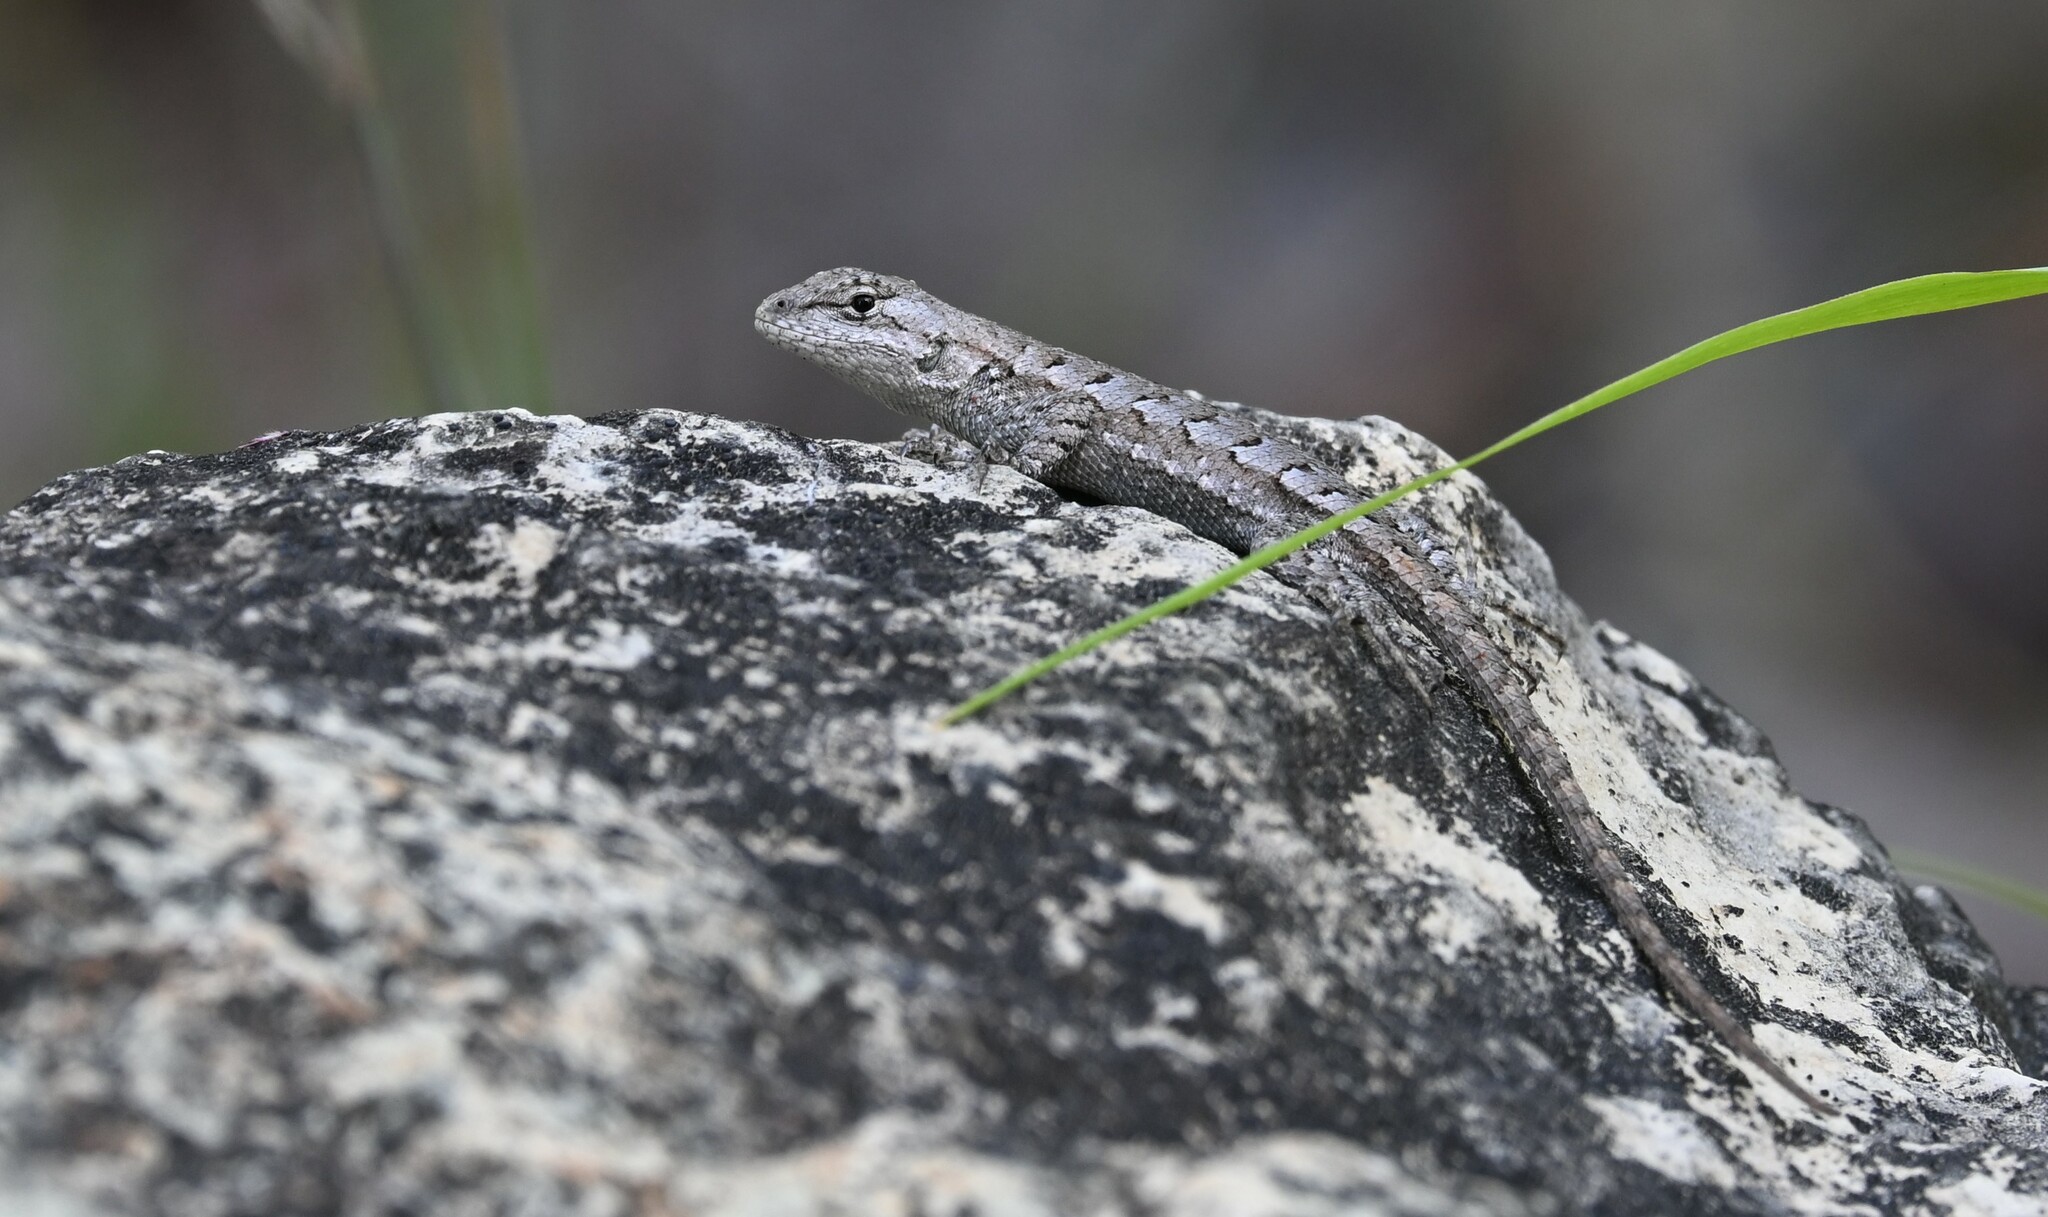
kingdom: Animalia
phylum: Chordata
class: Squamata
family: Phrynosomatidae
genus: Sceloporus
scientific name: Sceloporus consobrinus
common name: Southern prairie lizard
